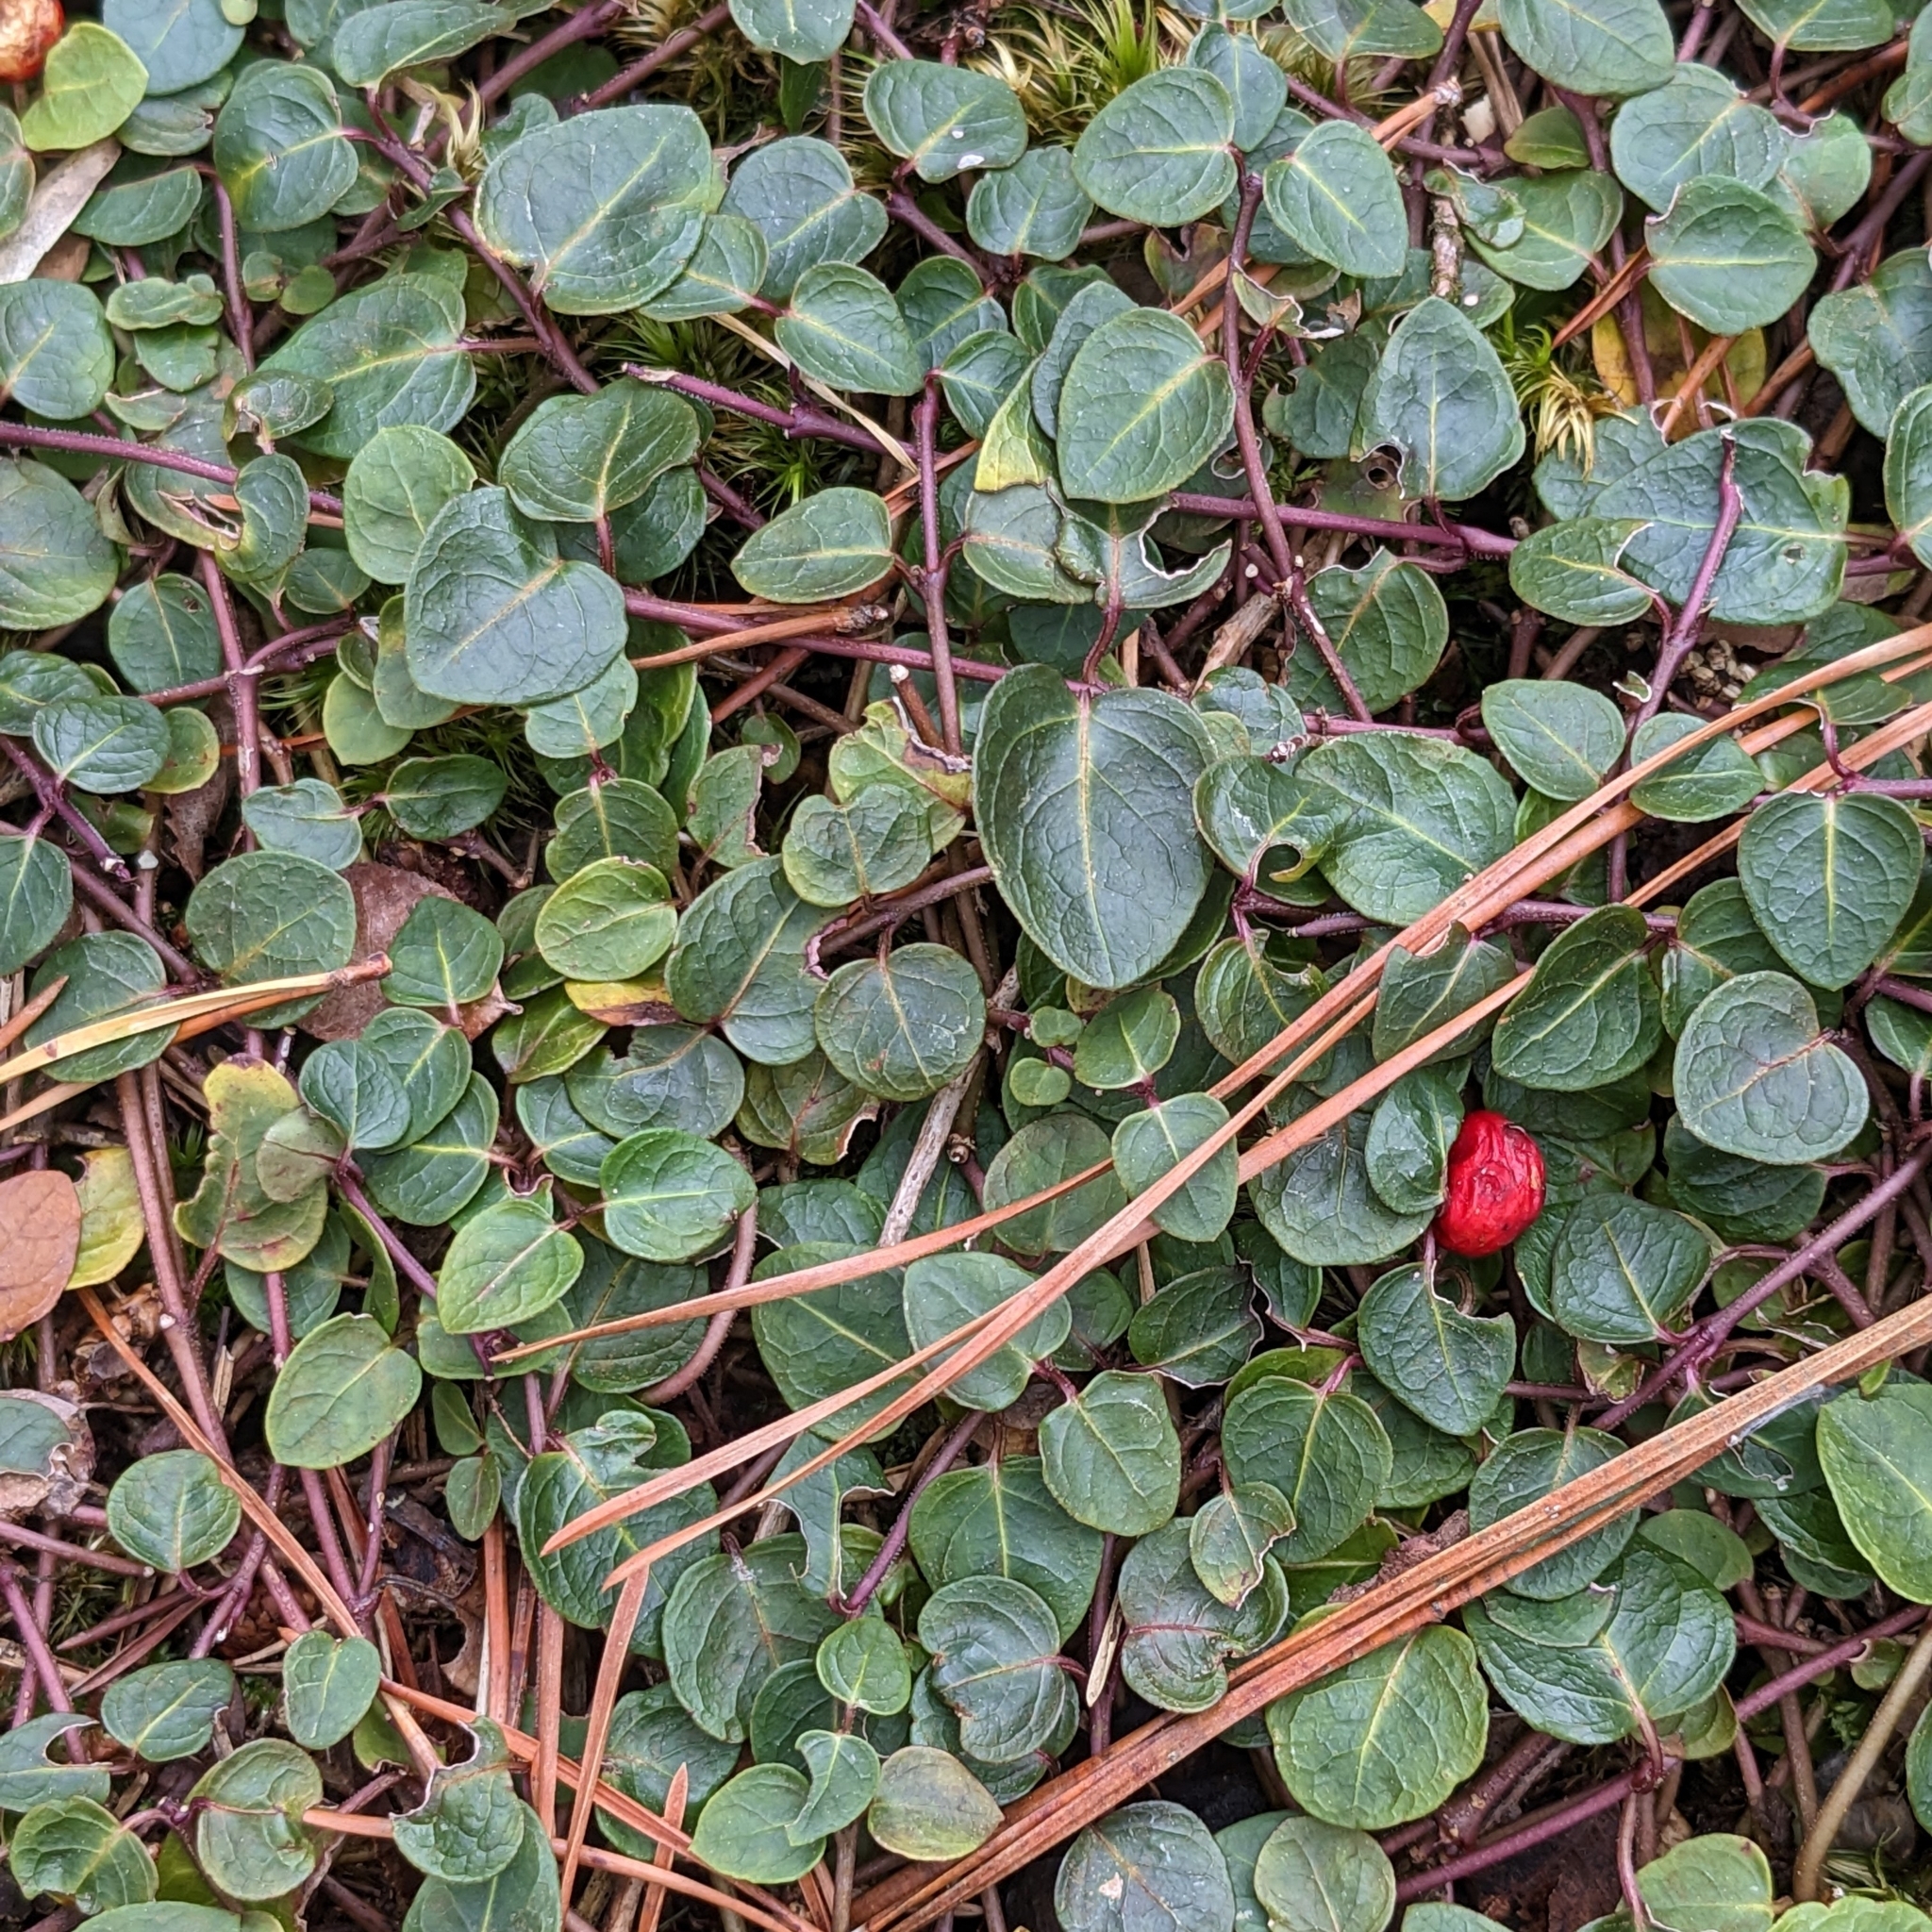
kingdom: Plantae
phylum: Tracheophyta
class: Magnoliopsida
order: Gentianales
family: Rubiaceae
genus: Mitchella
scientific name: Mitchella repens
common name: Partridge-berry
